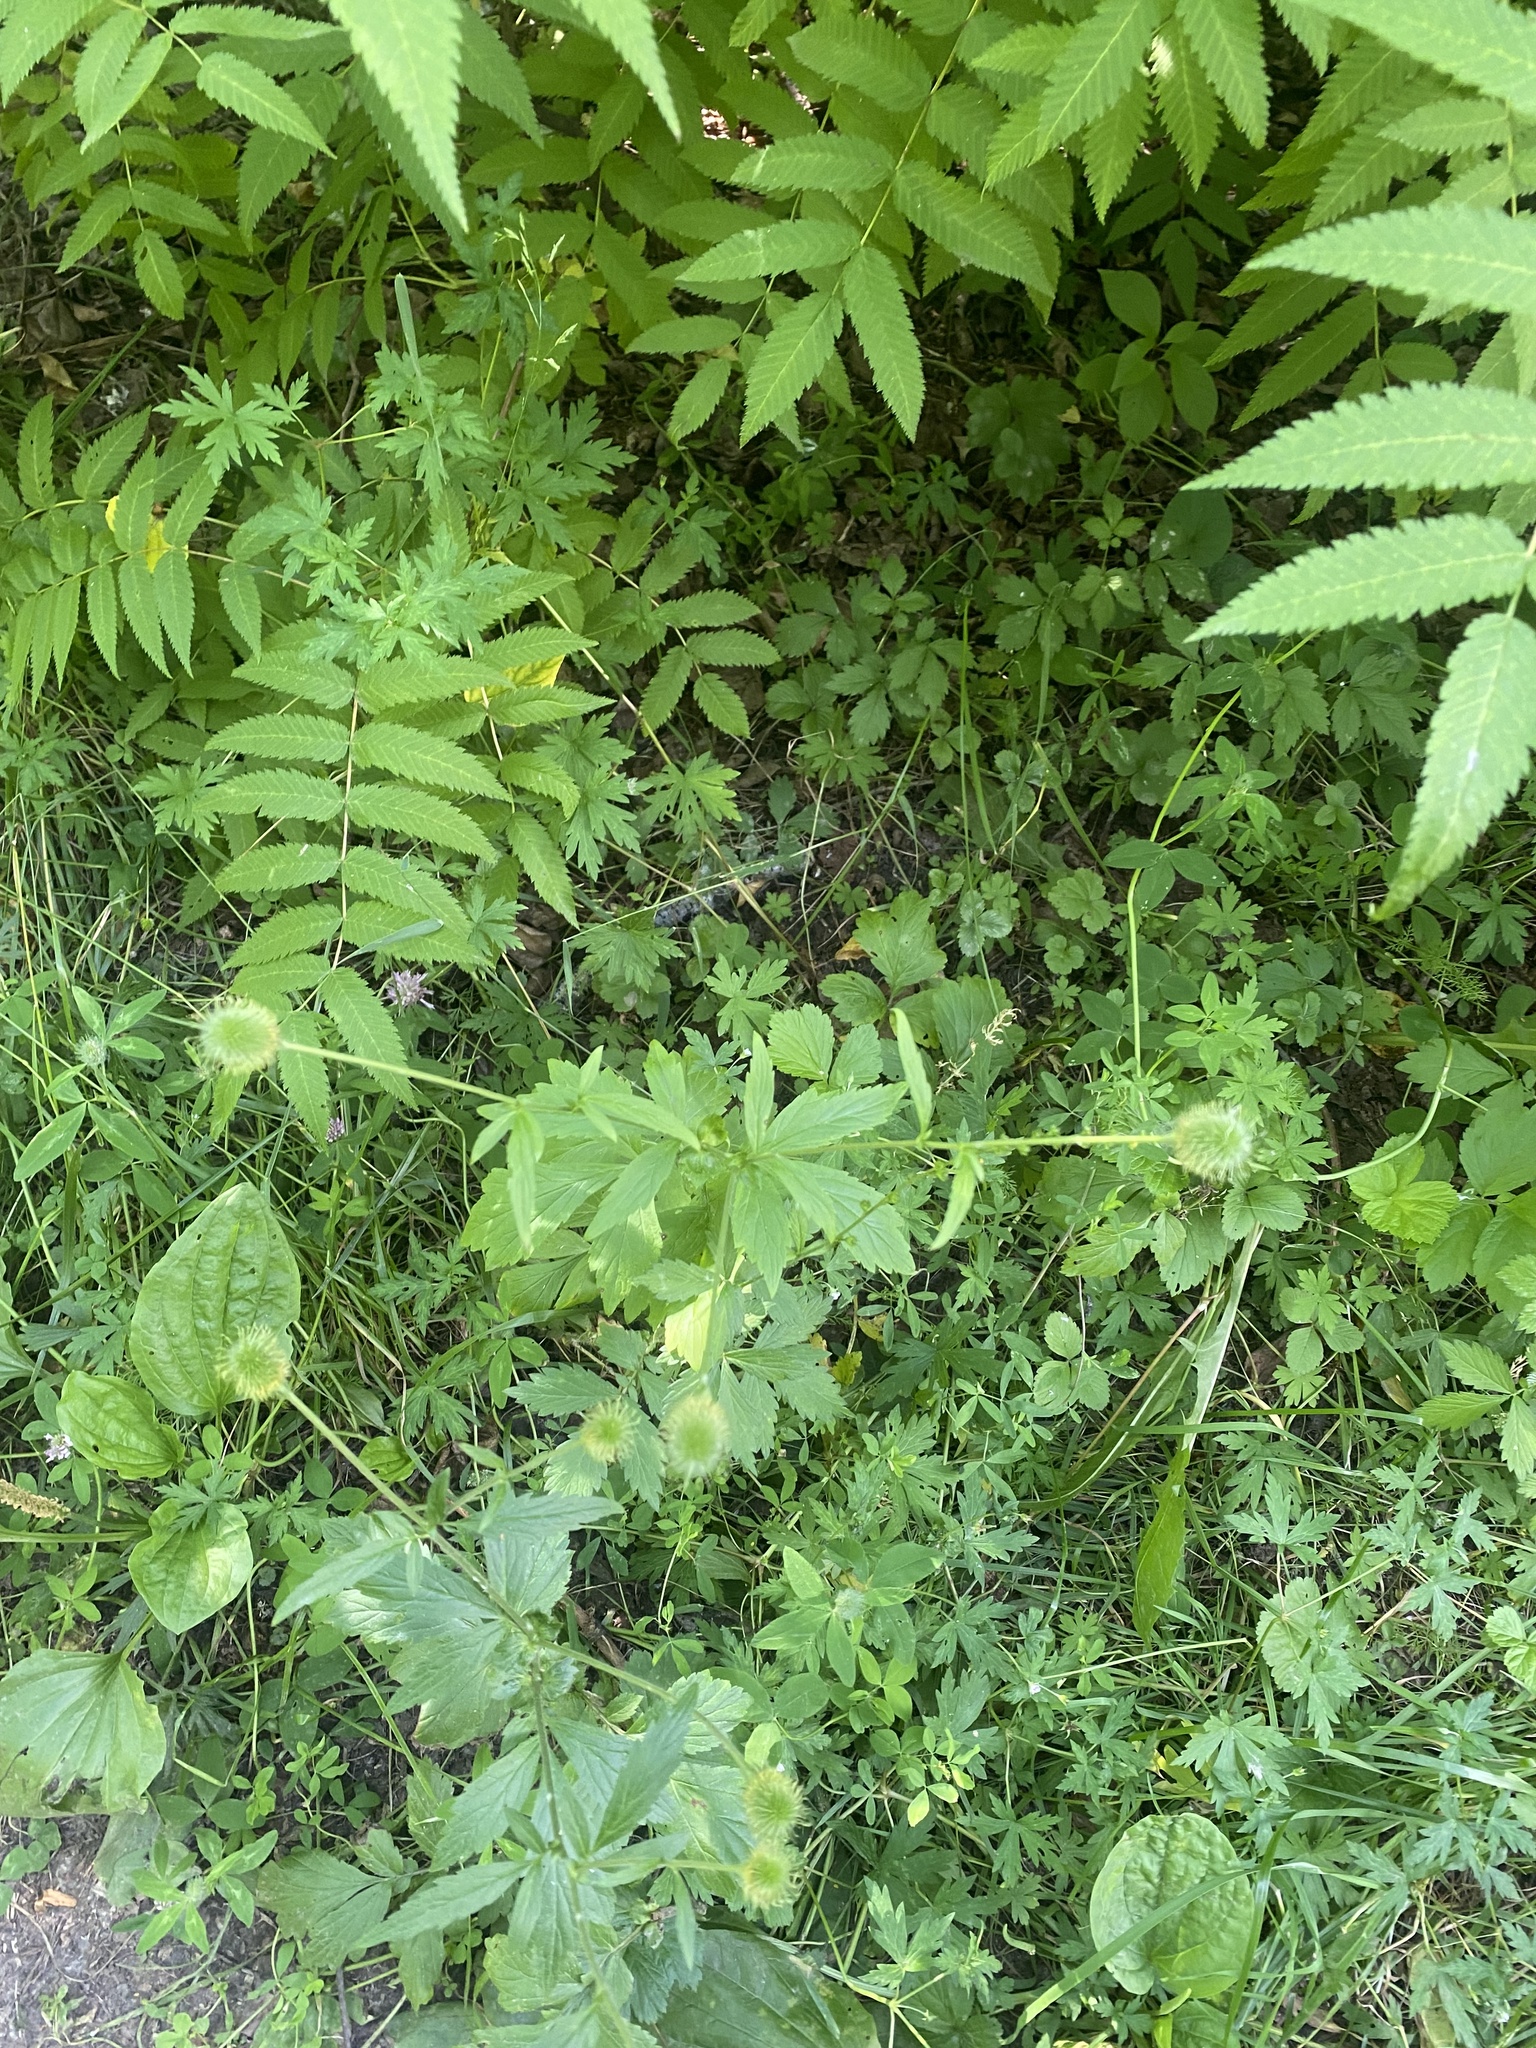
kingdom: Plantae
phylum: Tracheophyta
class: Magnoliopsida
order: Rosales
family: Rosaceae
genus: Geum
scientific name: Geum aleppicum
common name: Yellow avens
